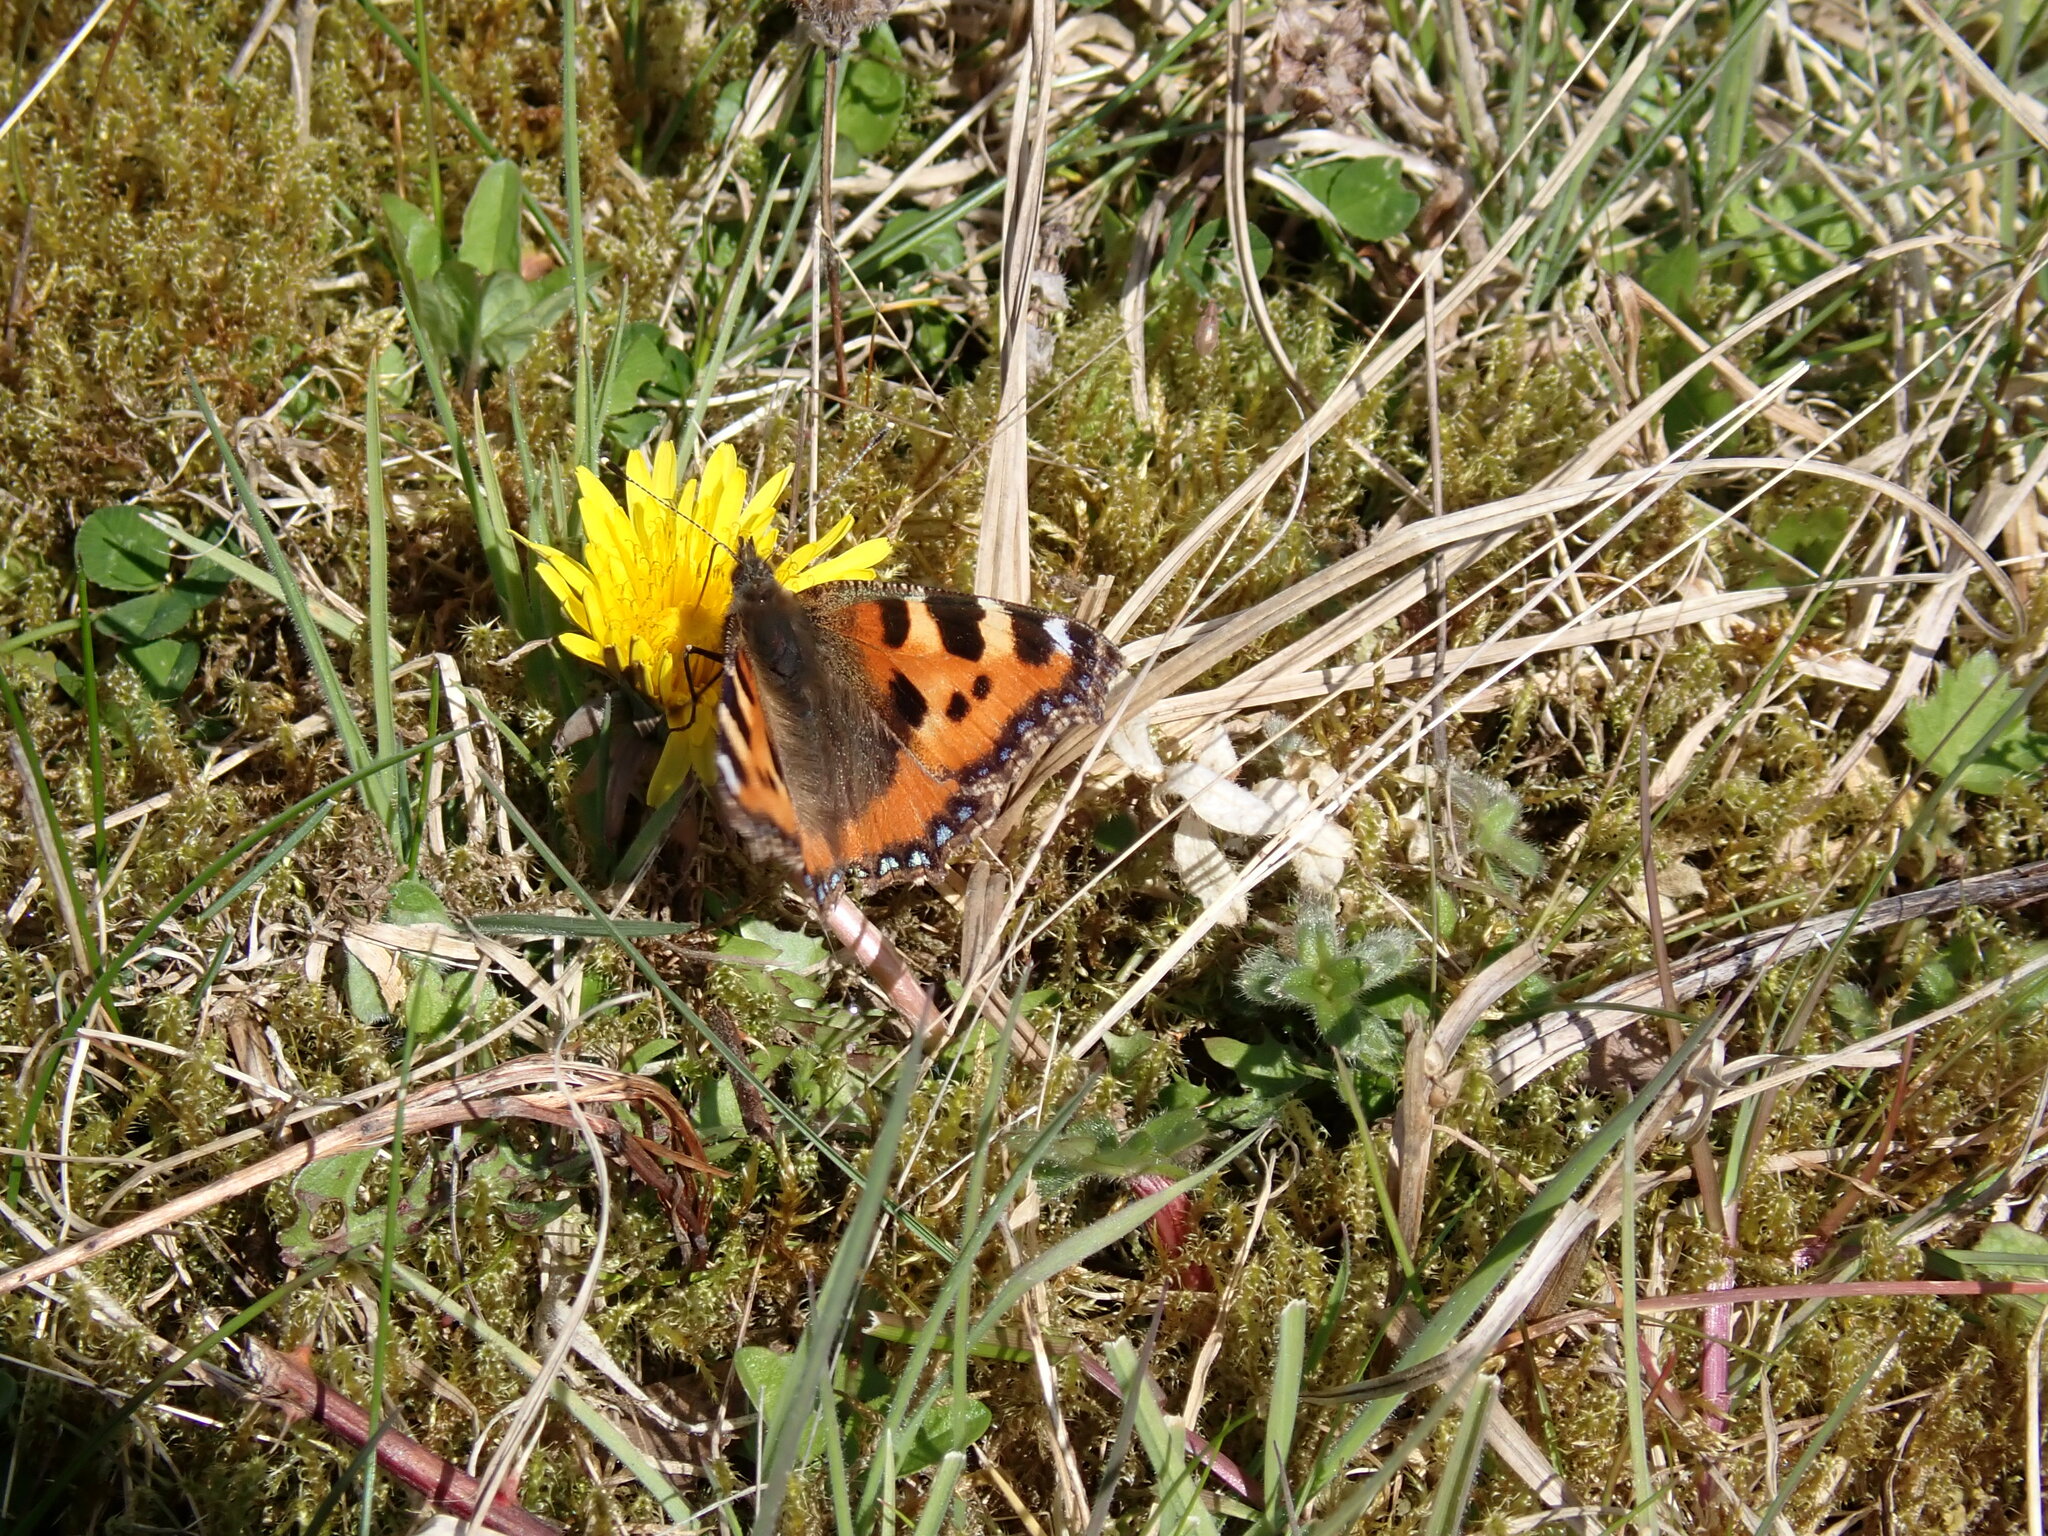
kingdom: Animalia
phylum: Arthropoda
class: Insecta
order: Lepidoptera
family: Nymphalidae
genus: Aglais
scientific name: Aglais urticae
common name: Small tortoiseshell
